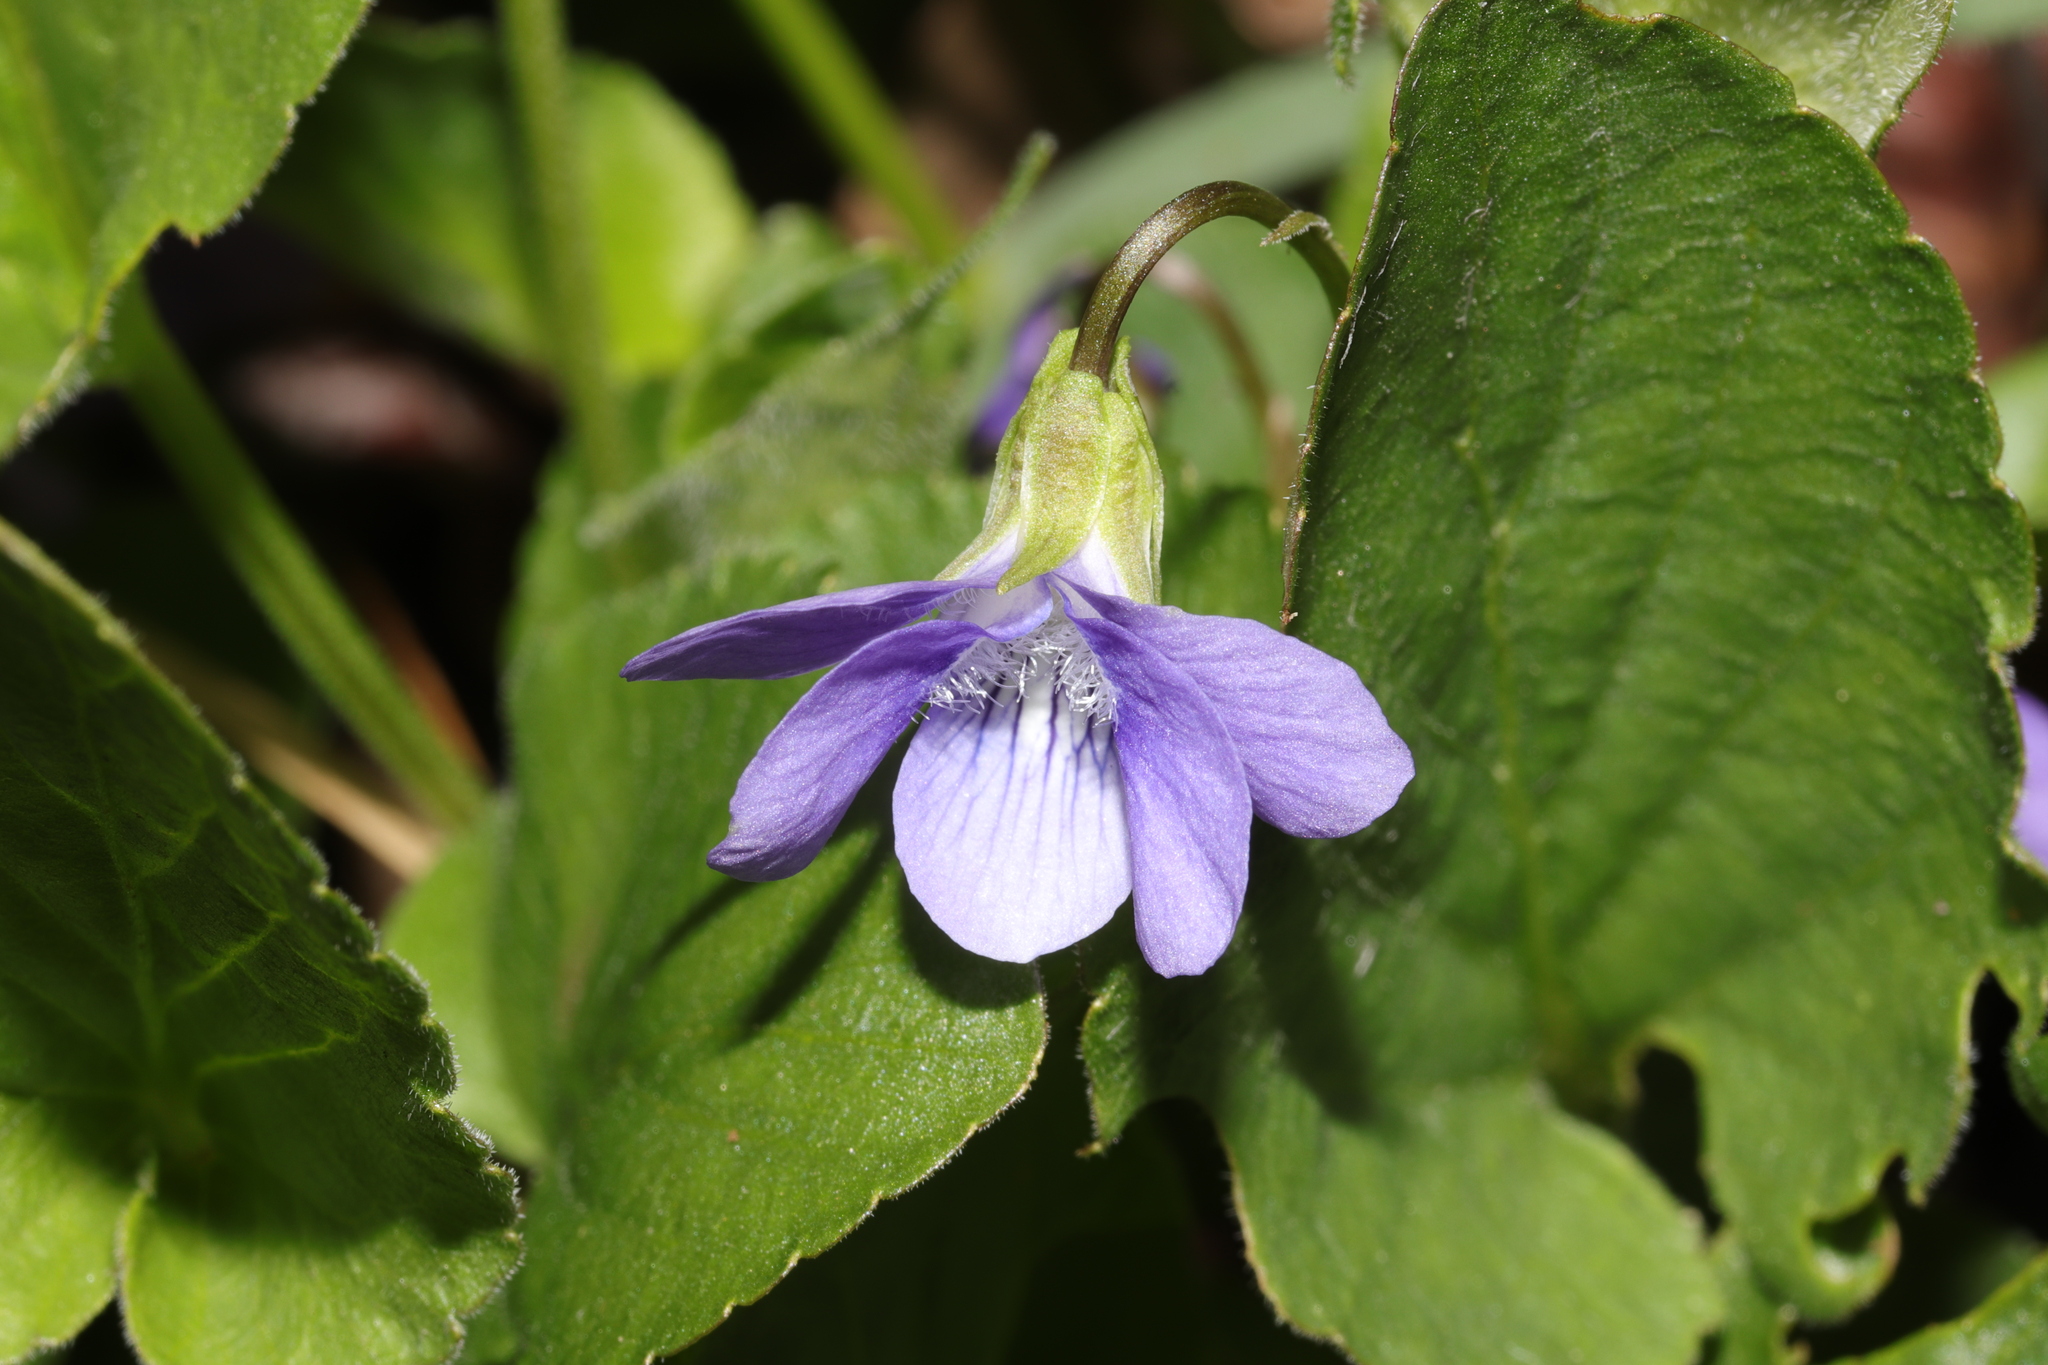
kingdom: Plantae
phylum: Tracheophyta
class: Magnoliopsida
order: Malpighiales
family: Violaceae
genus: Viola
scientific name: Viola adunca
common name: Sand violet
